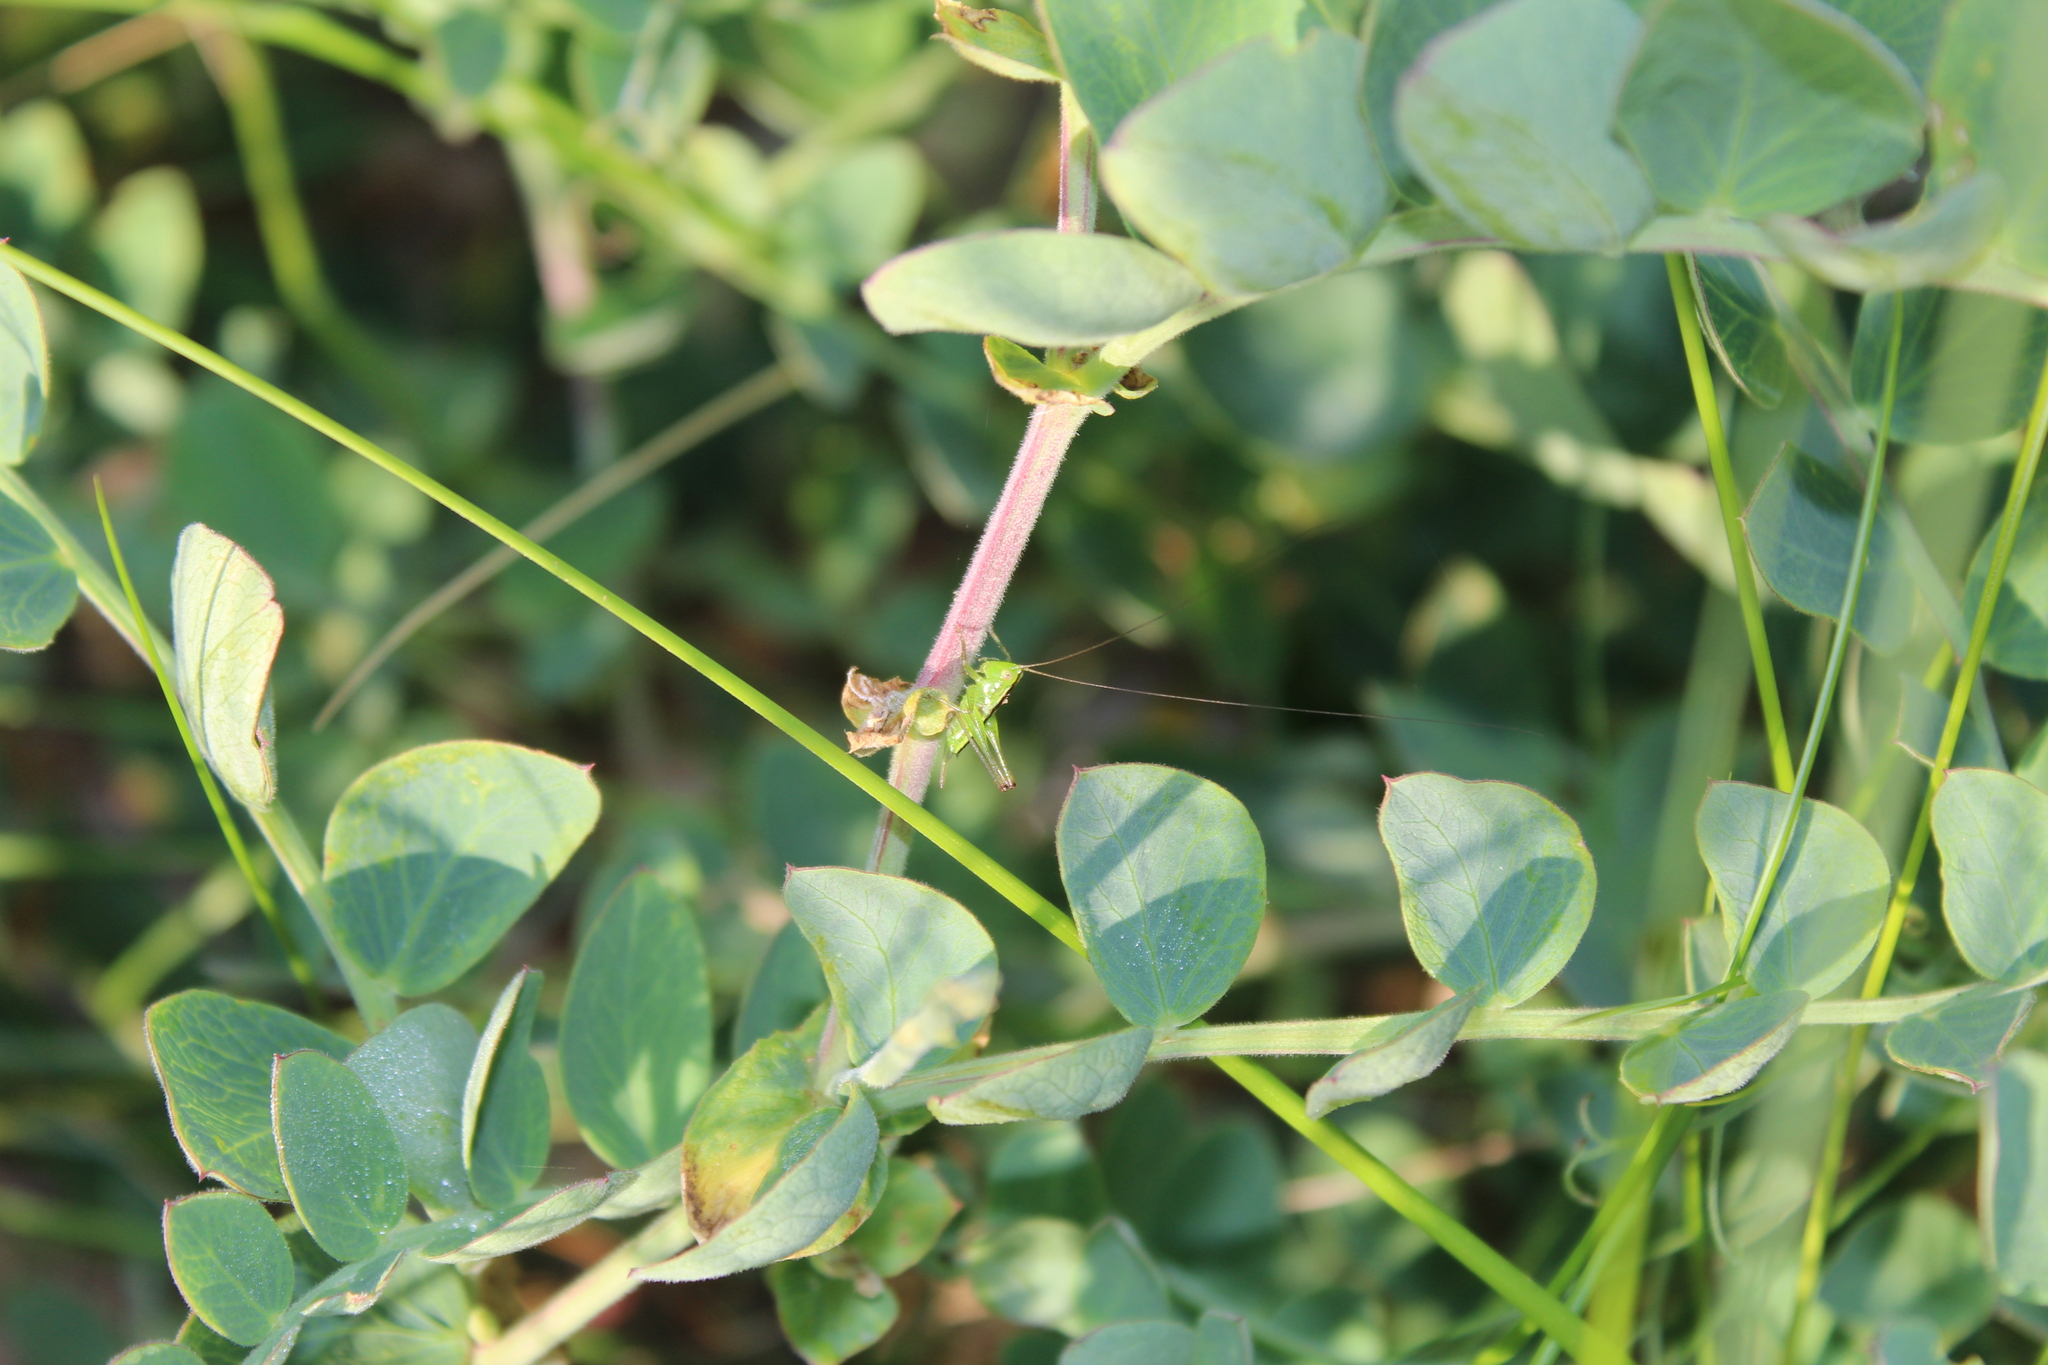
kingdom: Animalia
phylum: Arthropoda
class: Insecta
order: Orthoptera
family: Tettigoniidae
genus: Conocephalus
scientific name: Conocephalus
